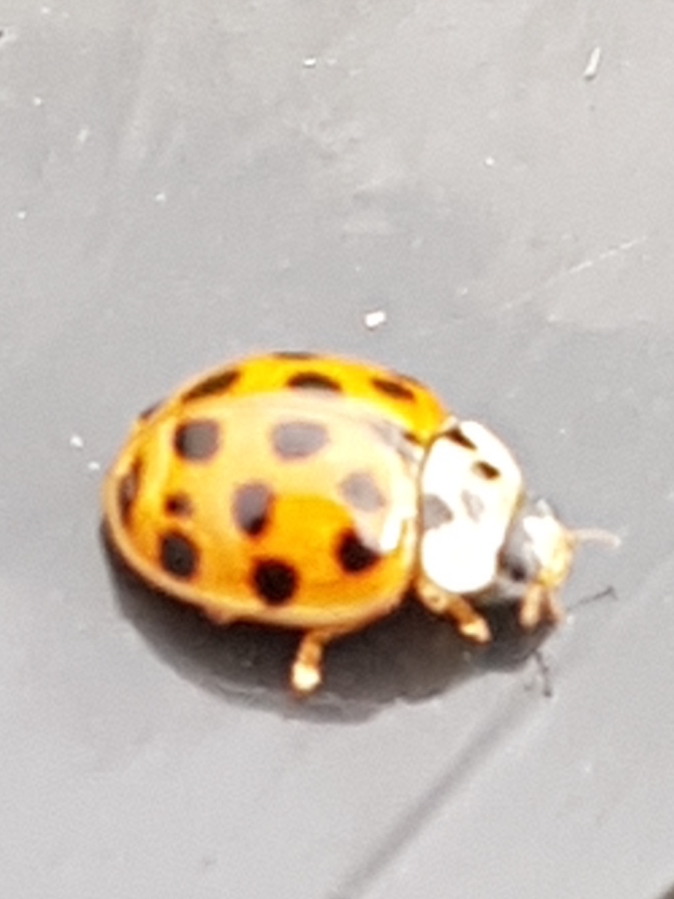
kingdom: Animalia
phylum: Arthropoda
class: Insecta
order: Coleoptera
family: Coccinellidae
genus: Harmonia
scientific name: Harmonia axyridis
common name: Harlequin ladybird
